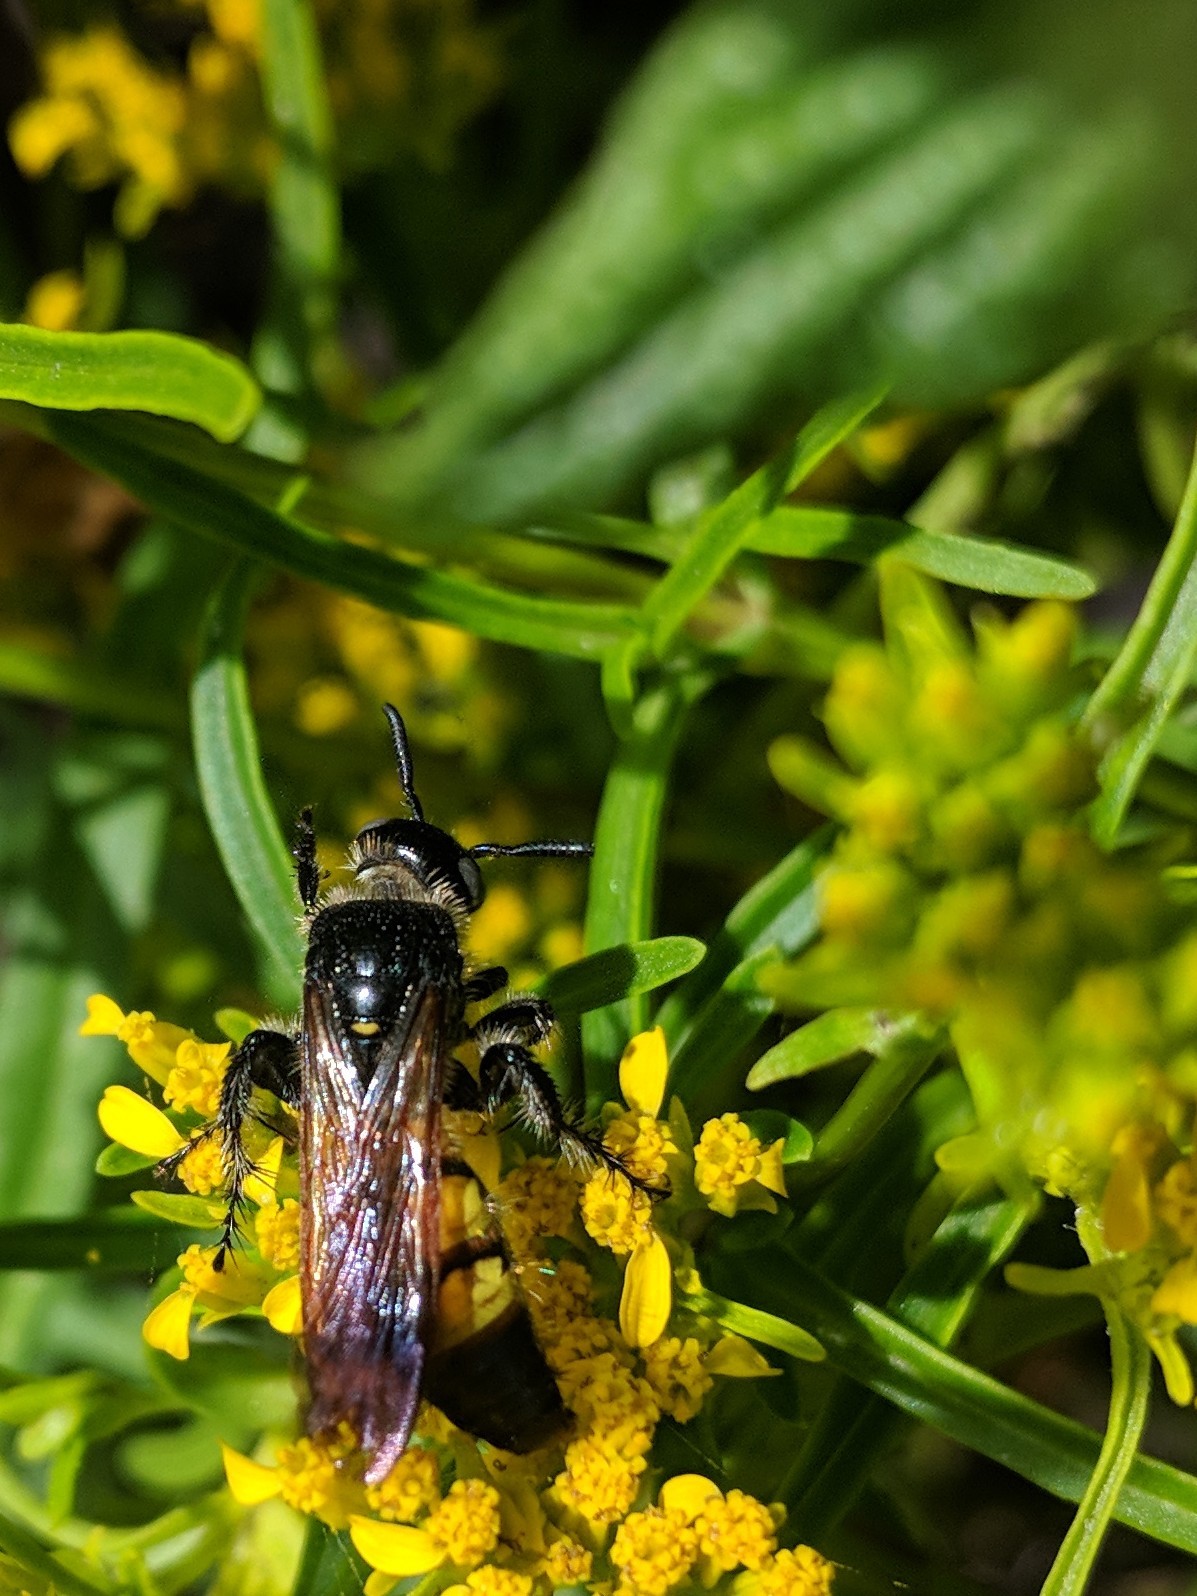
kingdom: Animalia
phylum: Arthropoda
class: Insecta
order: Hymenoptera
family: Scoliidae
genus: Dielis
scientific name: Dielis
